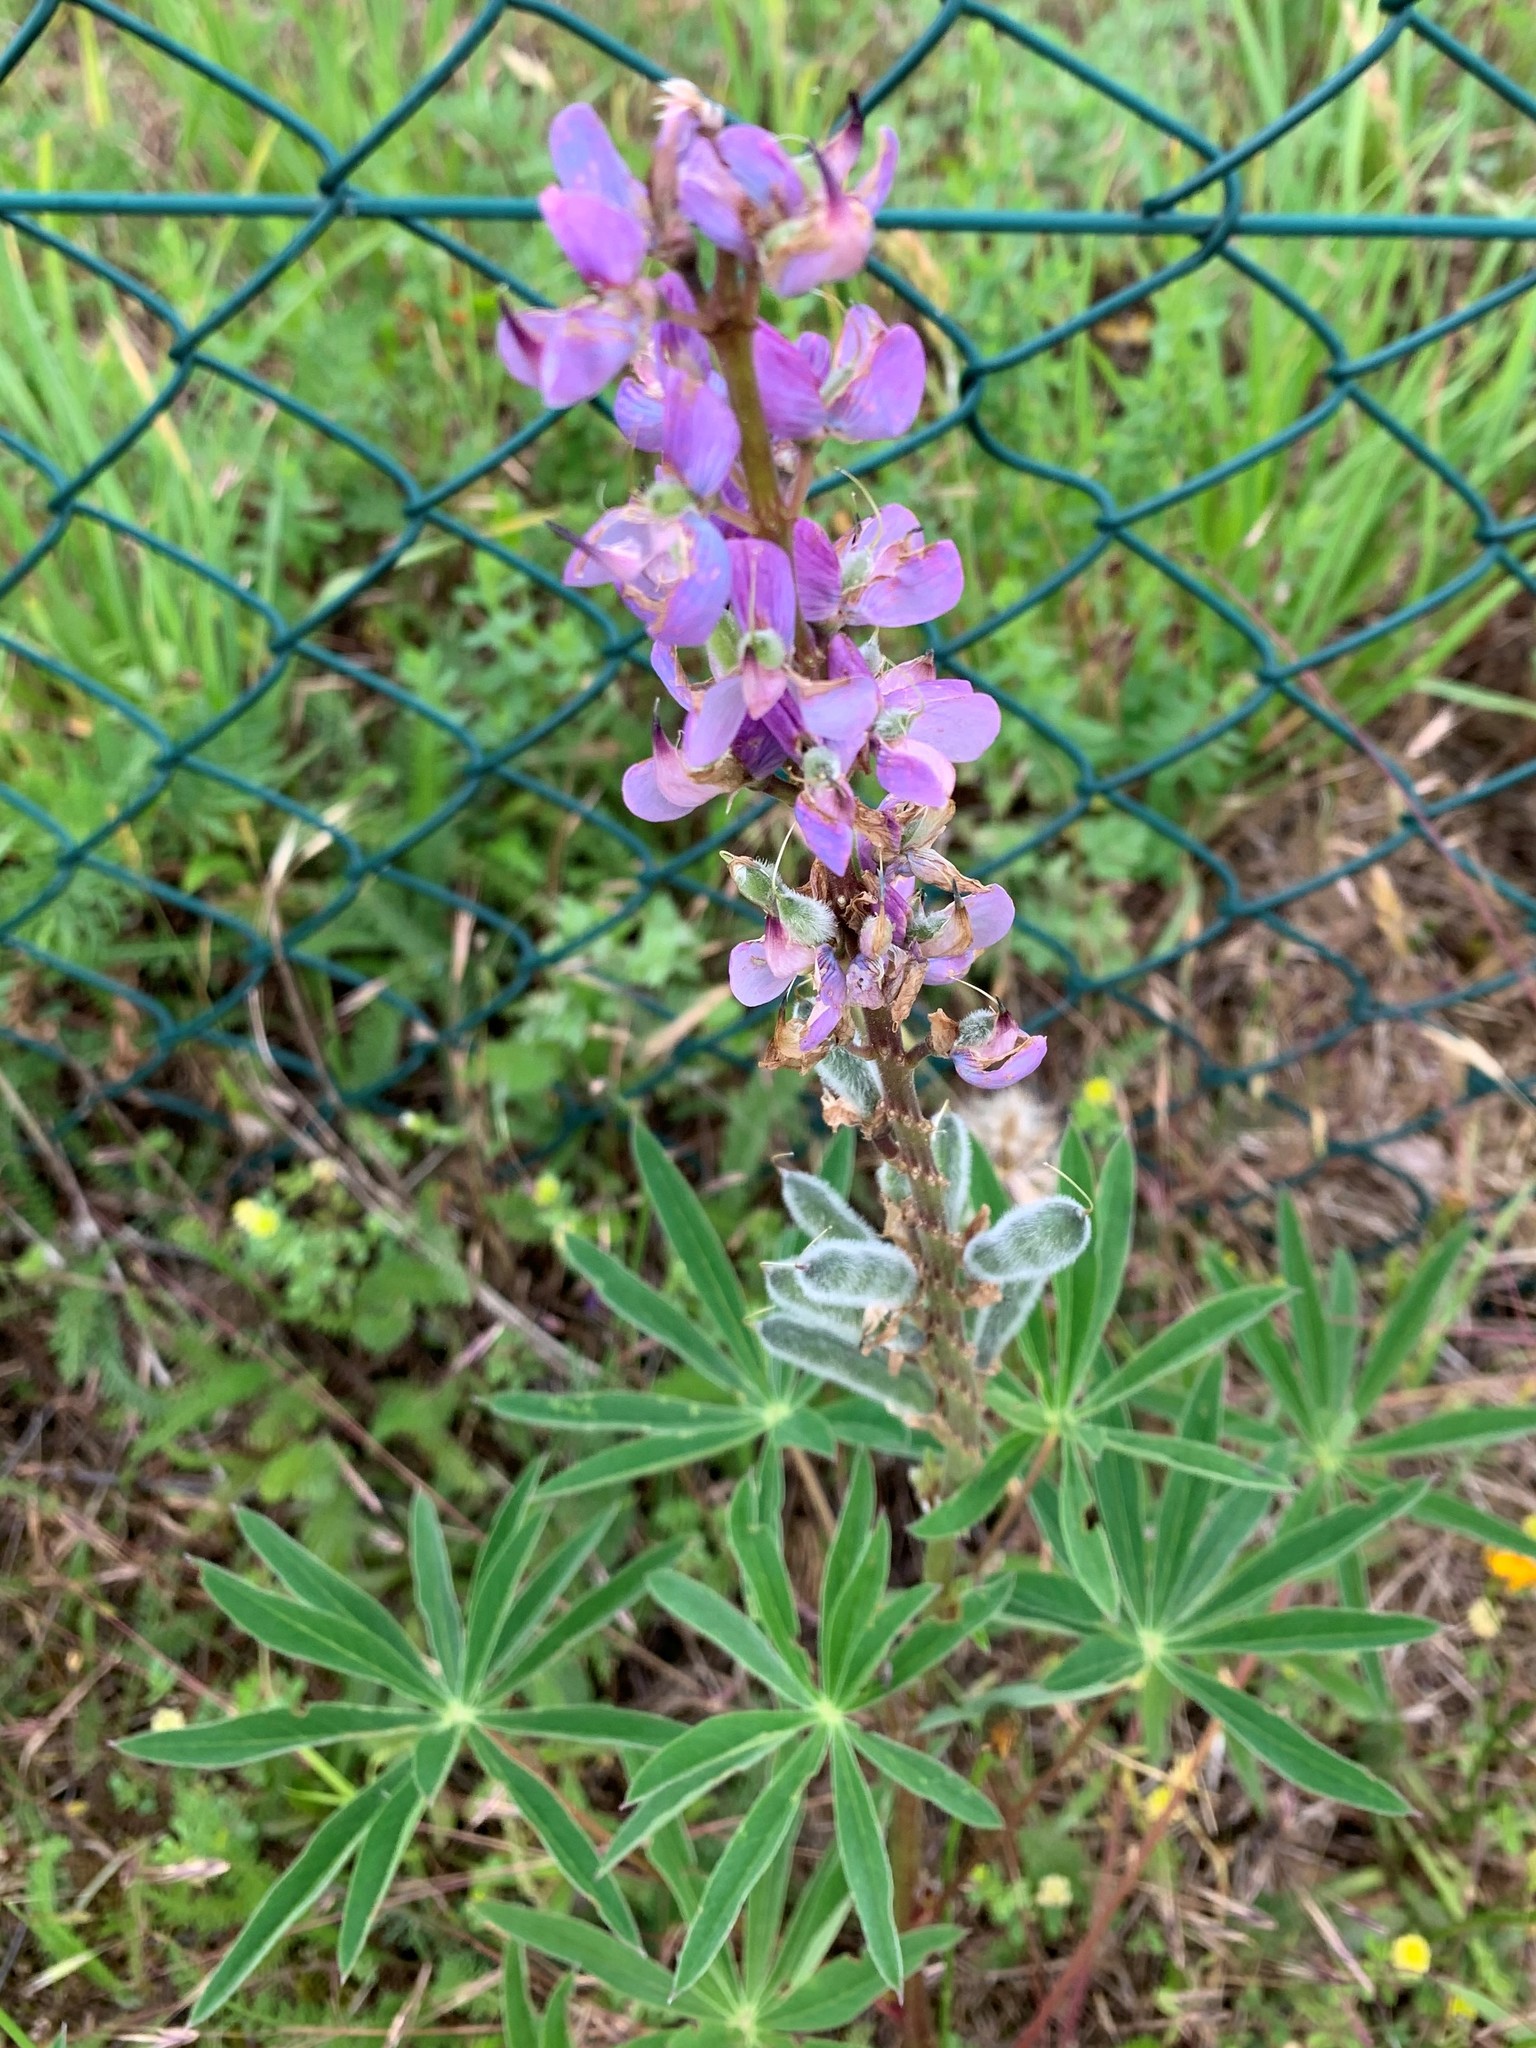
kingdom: Plantae
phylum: Tracheophyta
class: Magnoliopsida
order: Fabales
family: Fabaceae
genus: Lupinus
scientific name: Lupinus polyphyllus
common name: Garden lupin
